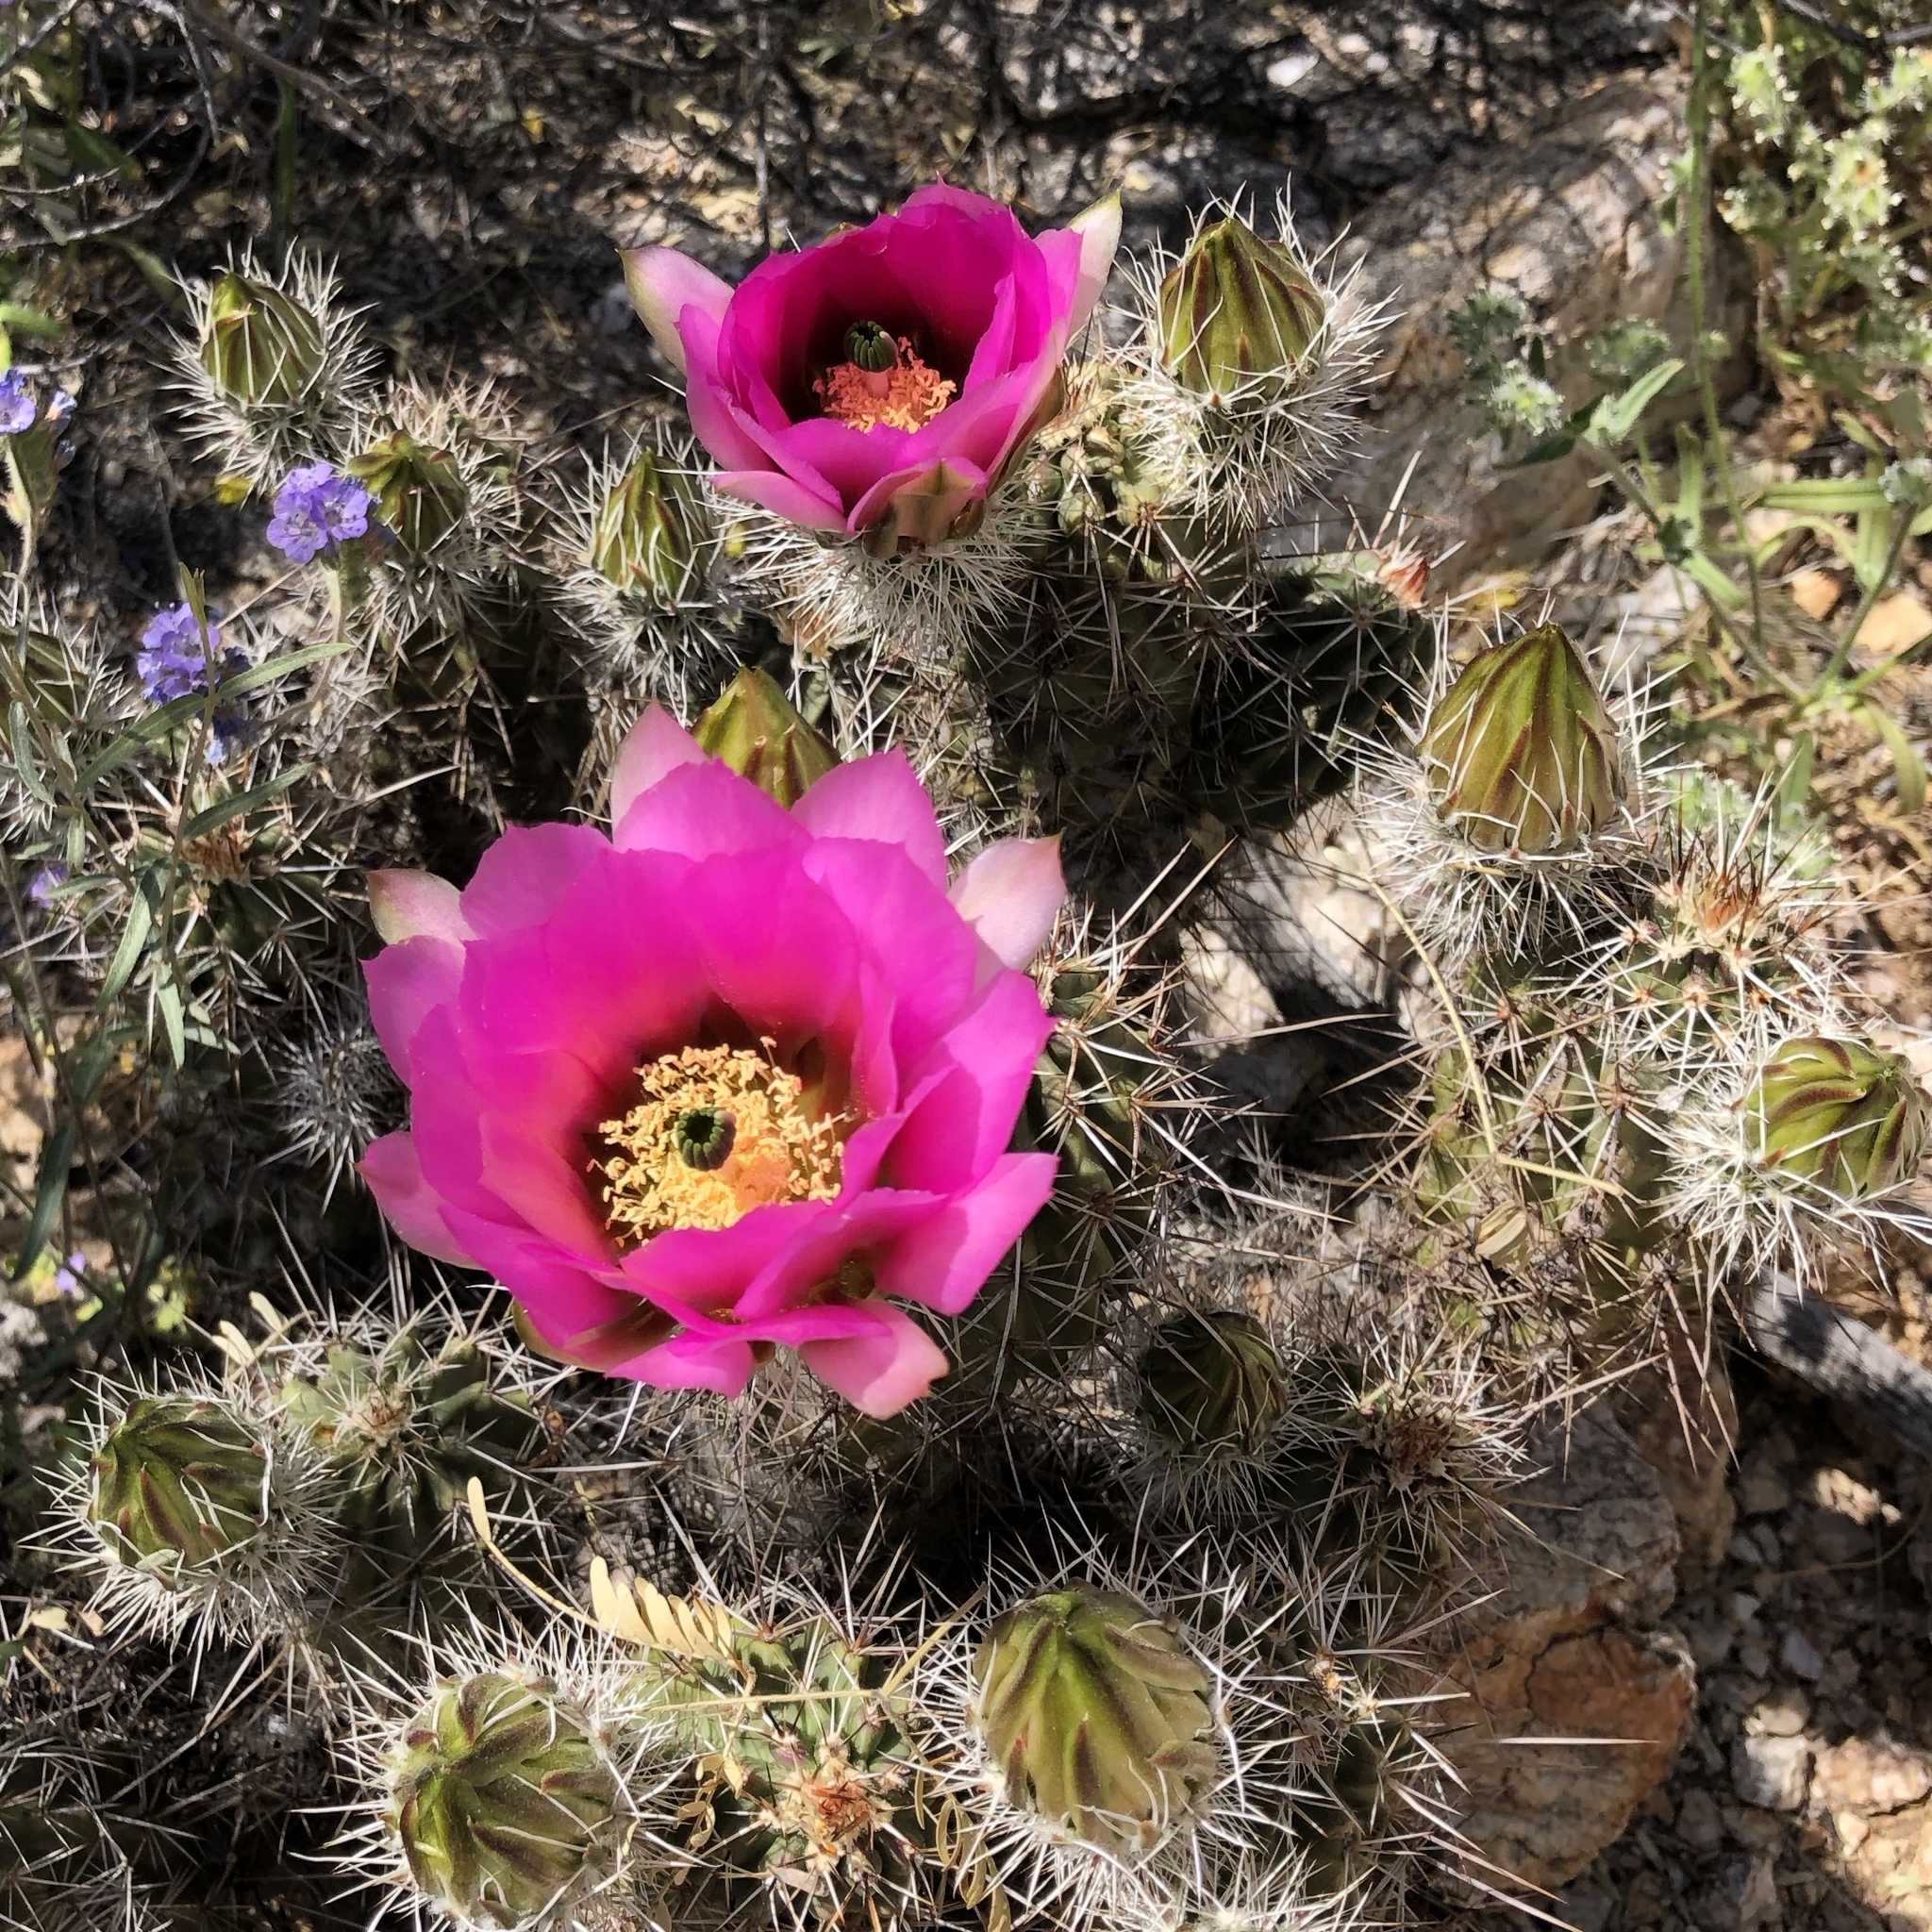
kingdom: Plantae
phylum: Tracheophyta
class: Magnoliopsida
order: Caryophyllales
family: Cactaceae
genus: Echinocereus
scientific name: Echinocereus fendleri
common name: Fendler's hedgehog cactus
